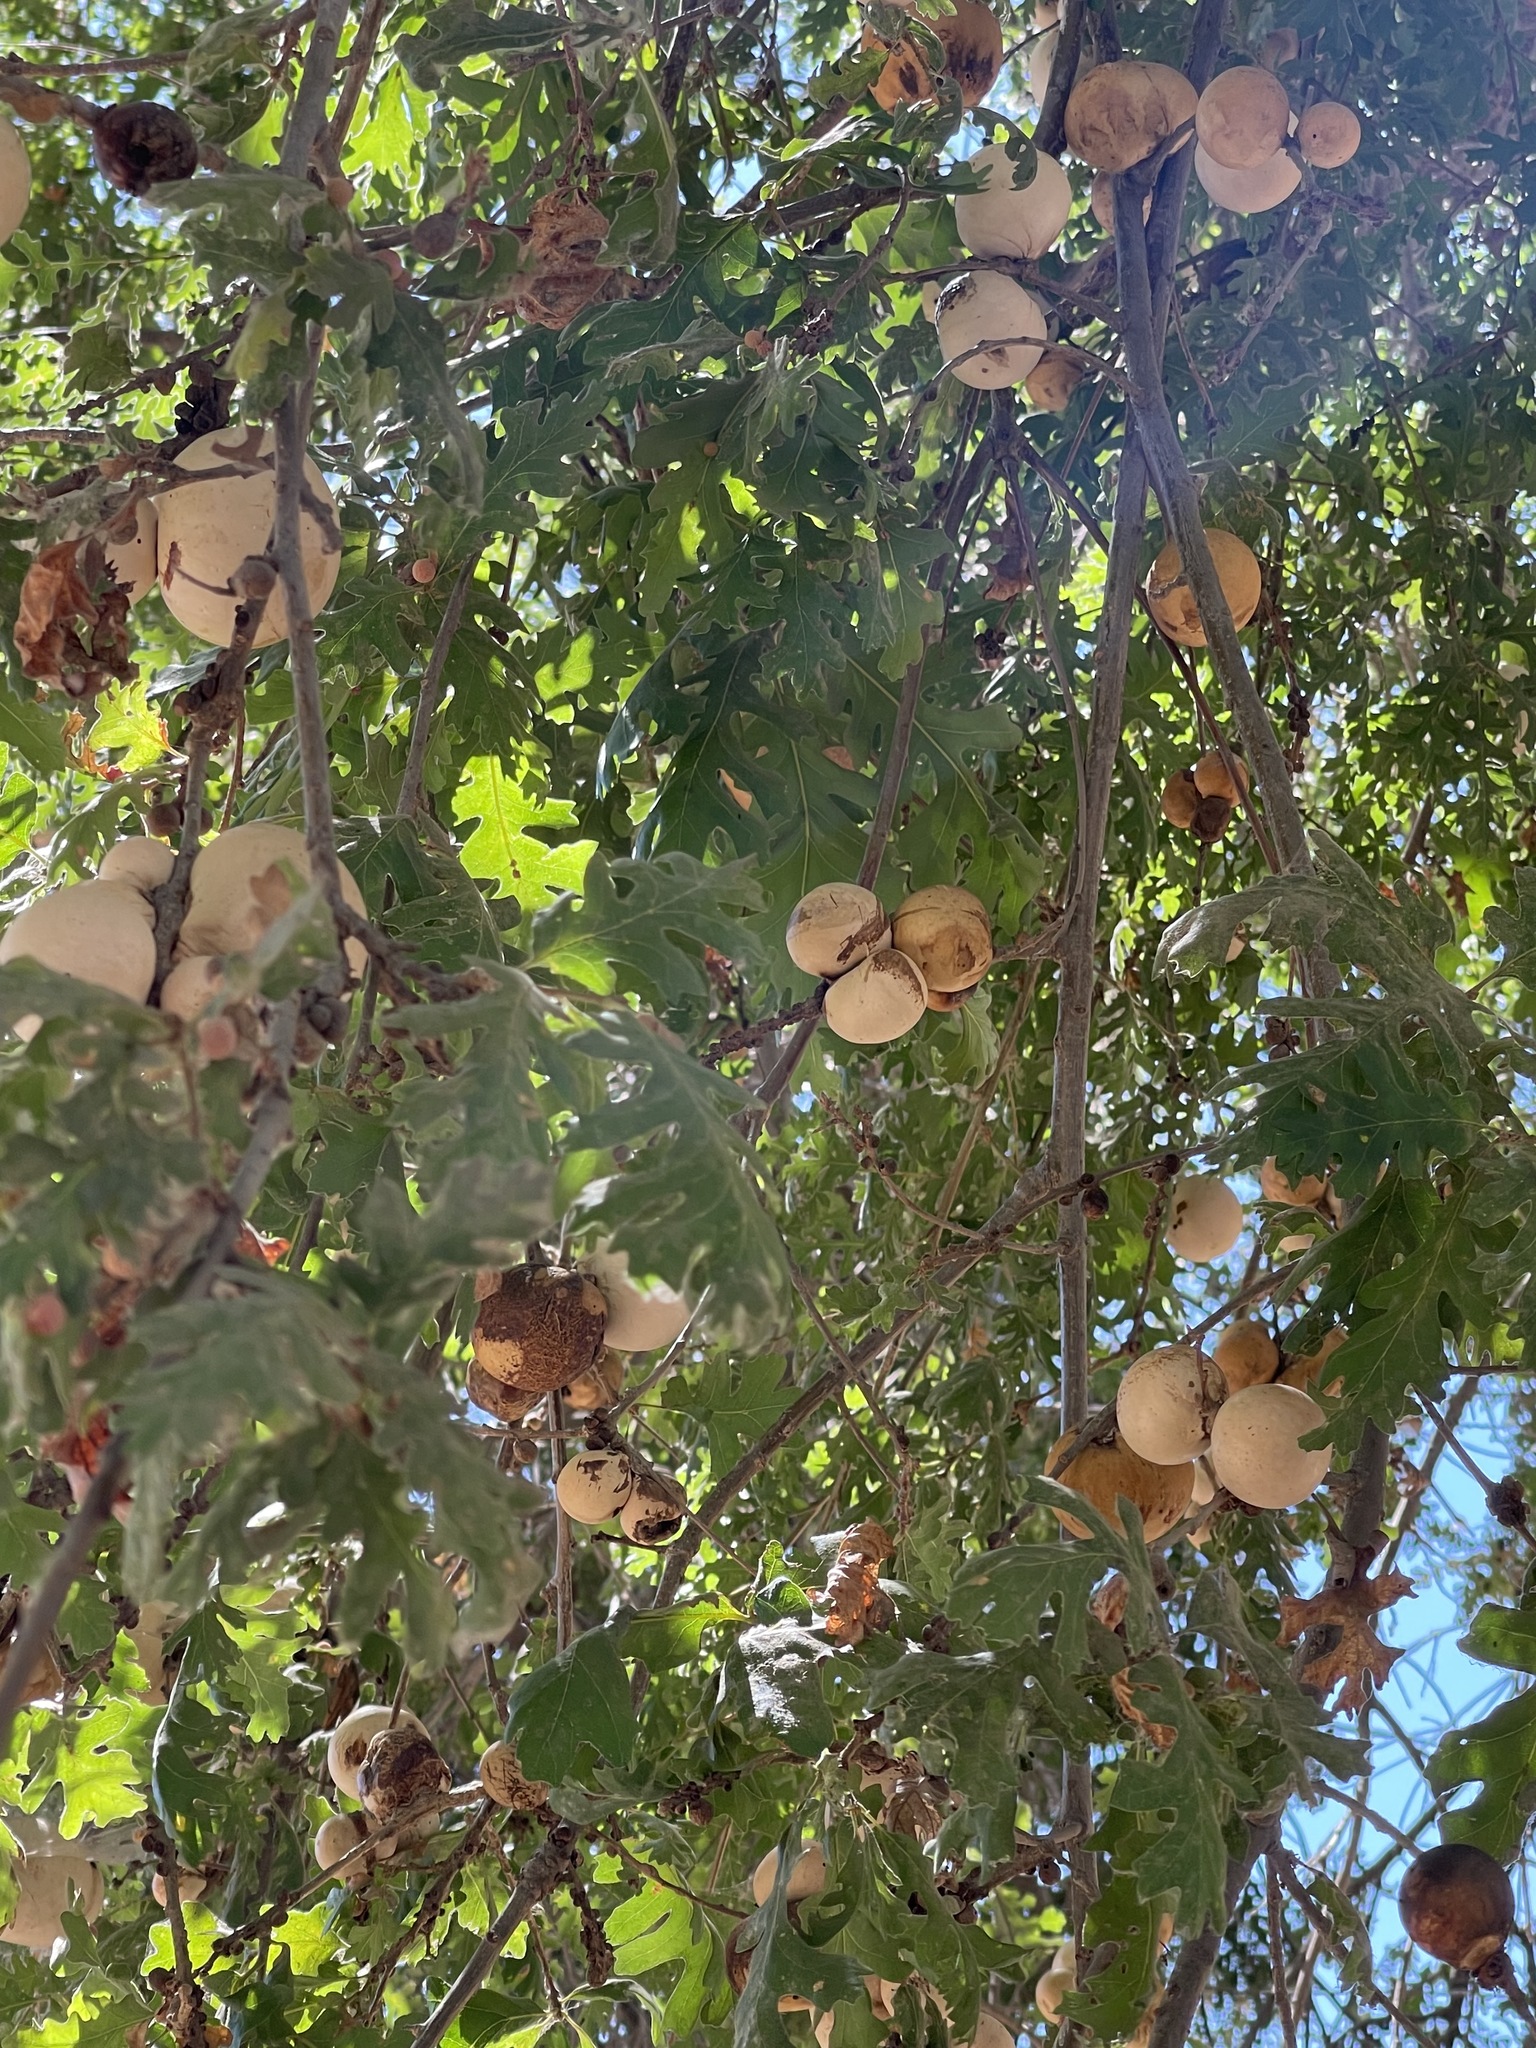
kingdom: Animalia
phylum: Arthropoda
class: Insecta
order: Hymenoptera
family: Cynipidae
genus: Andricus
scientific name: Andricus quercuscalifornicus
